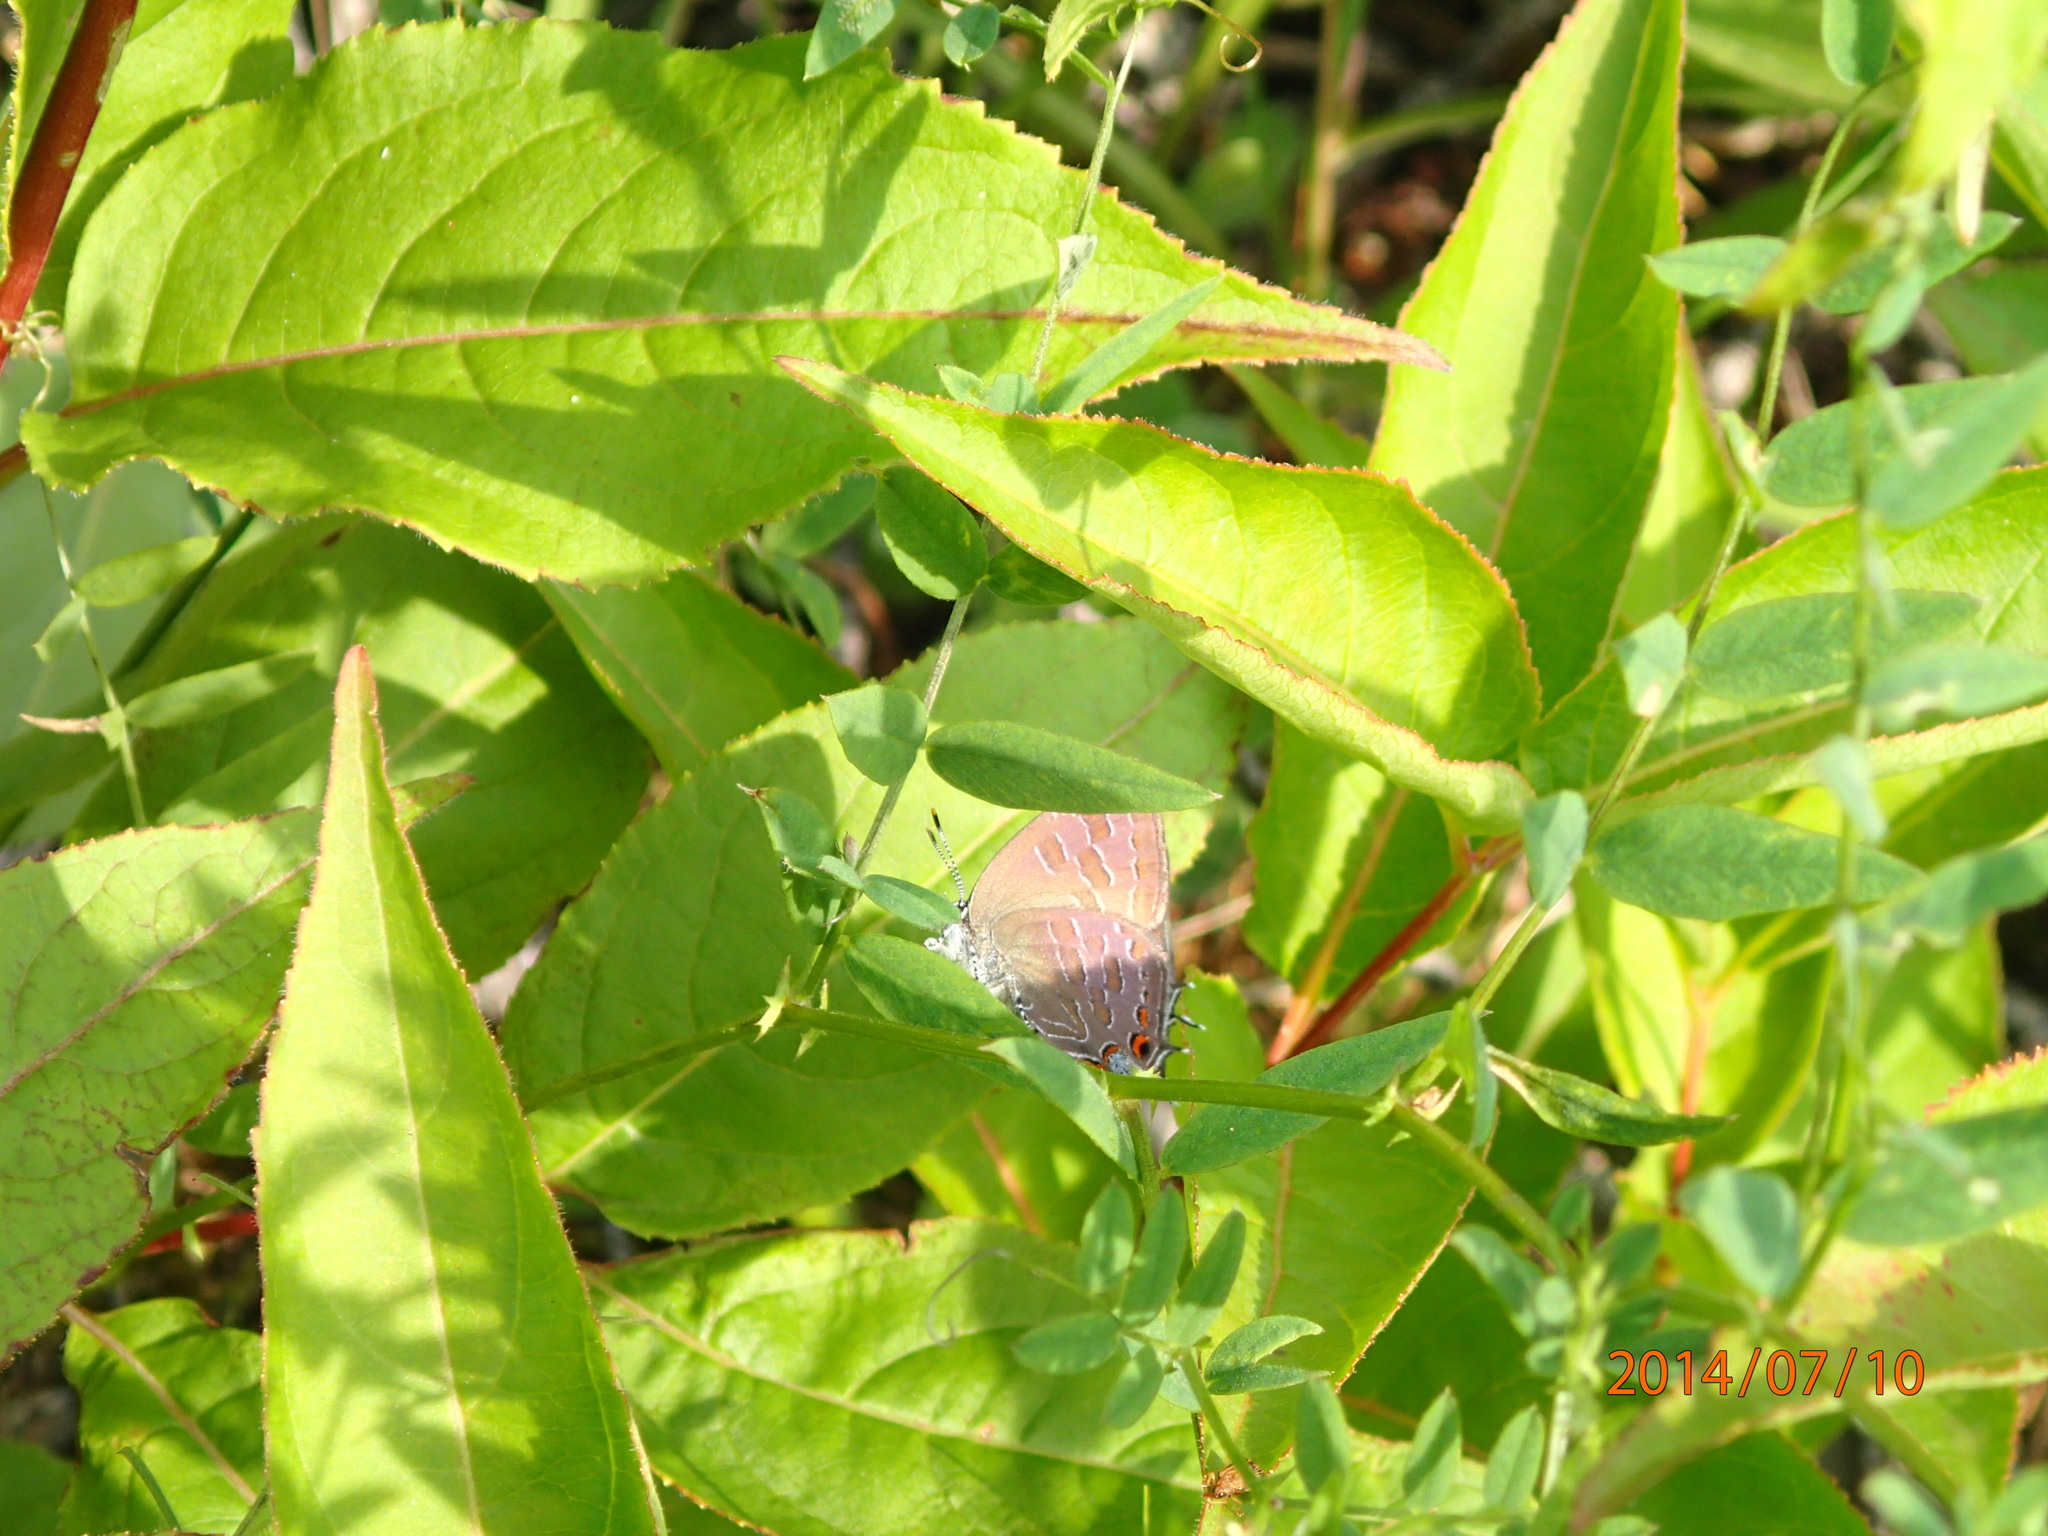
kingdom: Animalia
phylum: Arthropoda
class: Insecta
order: Lepidoptera
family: Lycaenidae
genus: Satyrium
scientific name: Satyrium liparops
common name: Striped hairstreak
